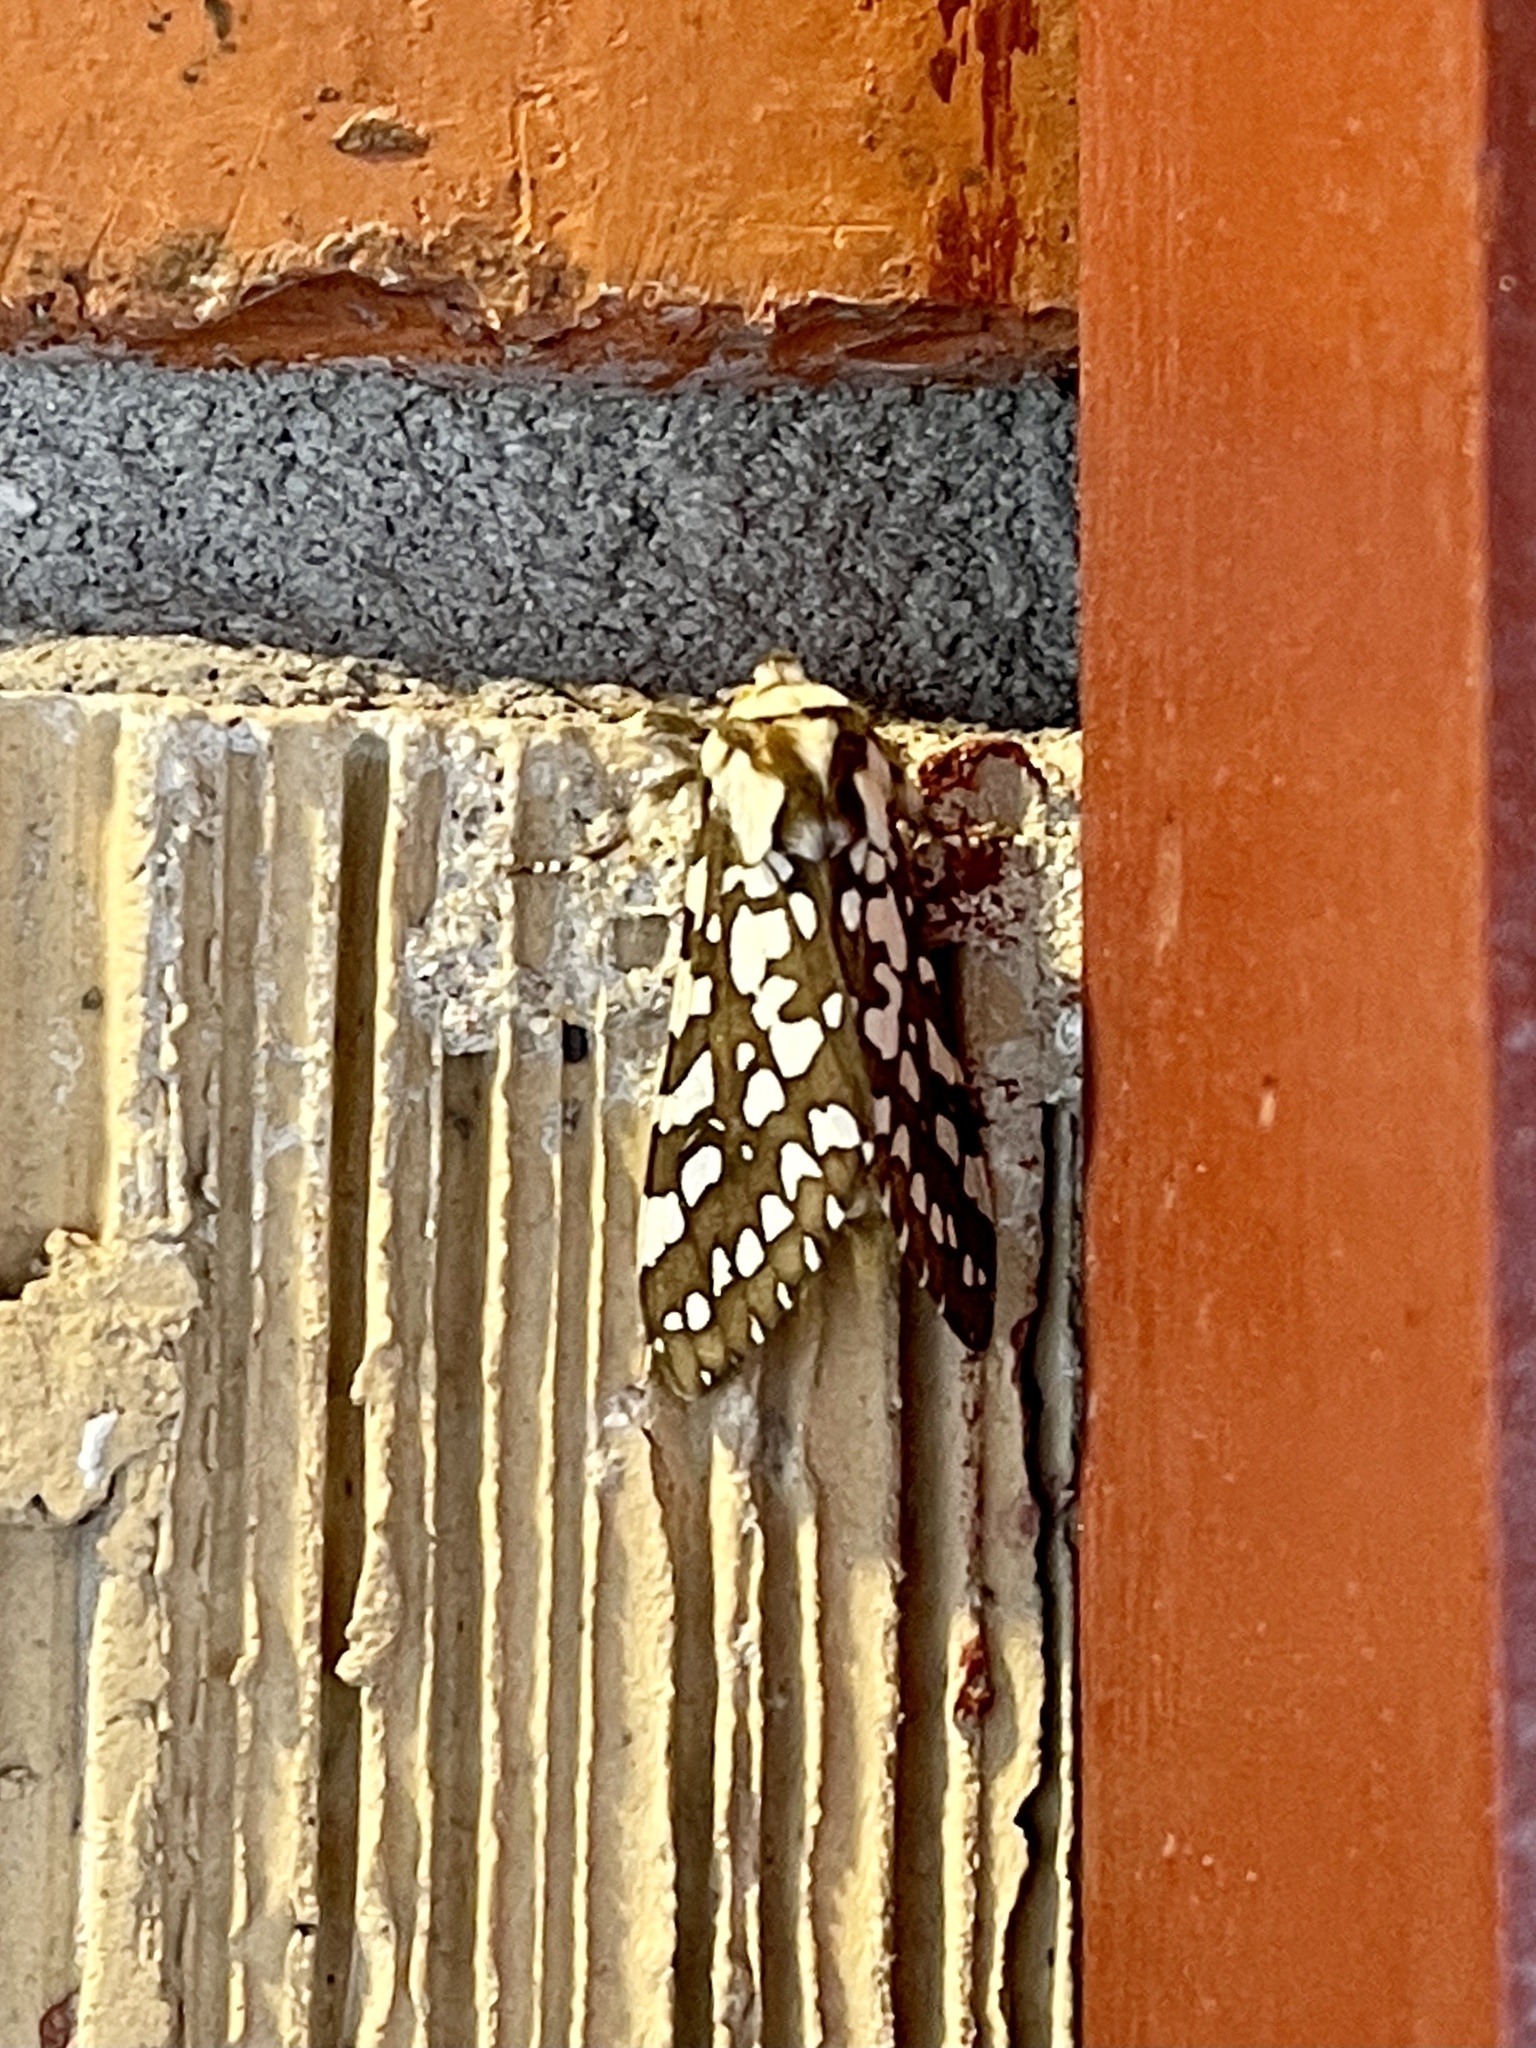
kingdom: Animalia
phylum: Arthropoda
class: Insecta
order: Lepidoptera
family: Erebidae
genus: Lophocampa
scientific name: Lophocampa ingens
